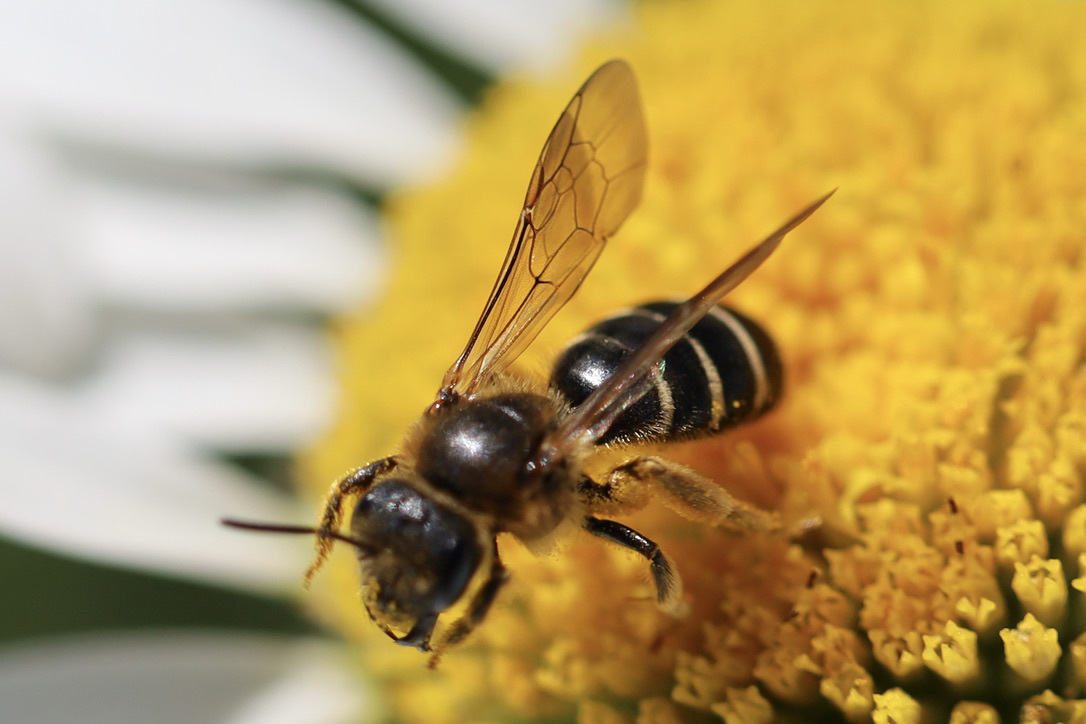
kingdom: Animalia
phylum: Arthropoda
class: Insecta
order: Hymenoptera
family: Halictidae
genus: Halictus
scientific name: Halictus rubicundus
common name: Orange-legged furrow bee
